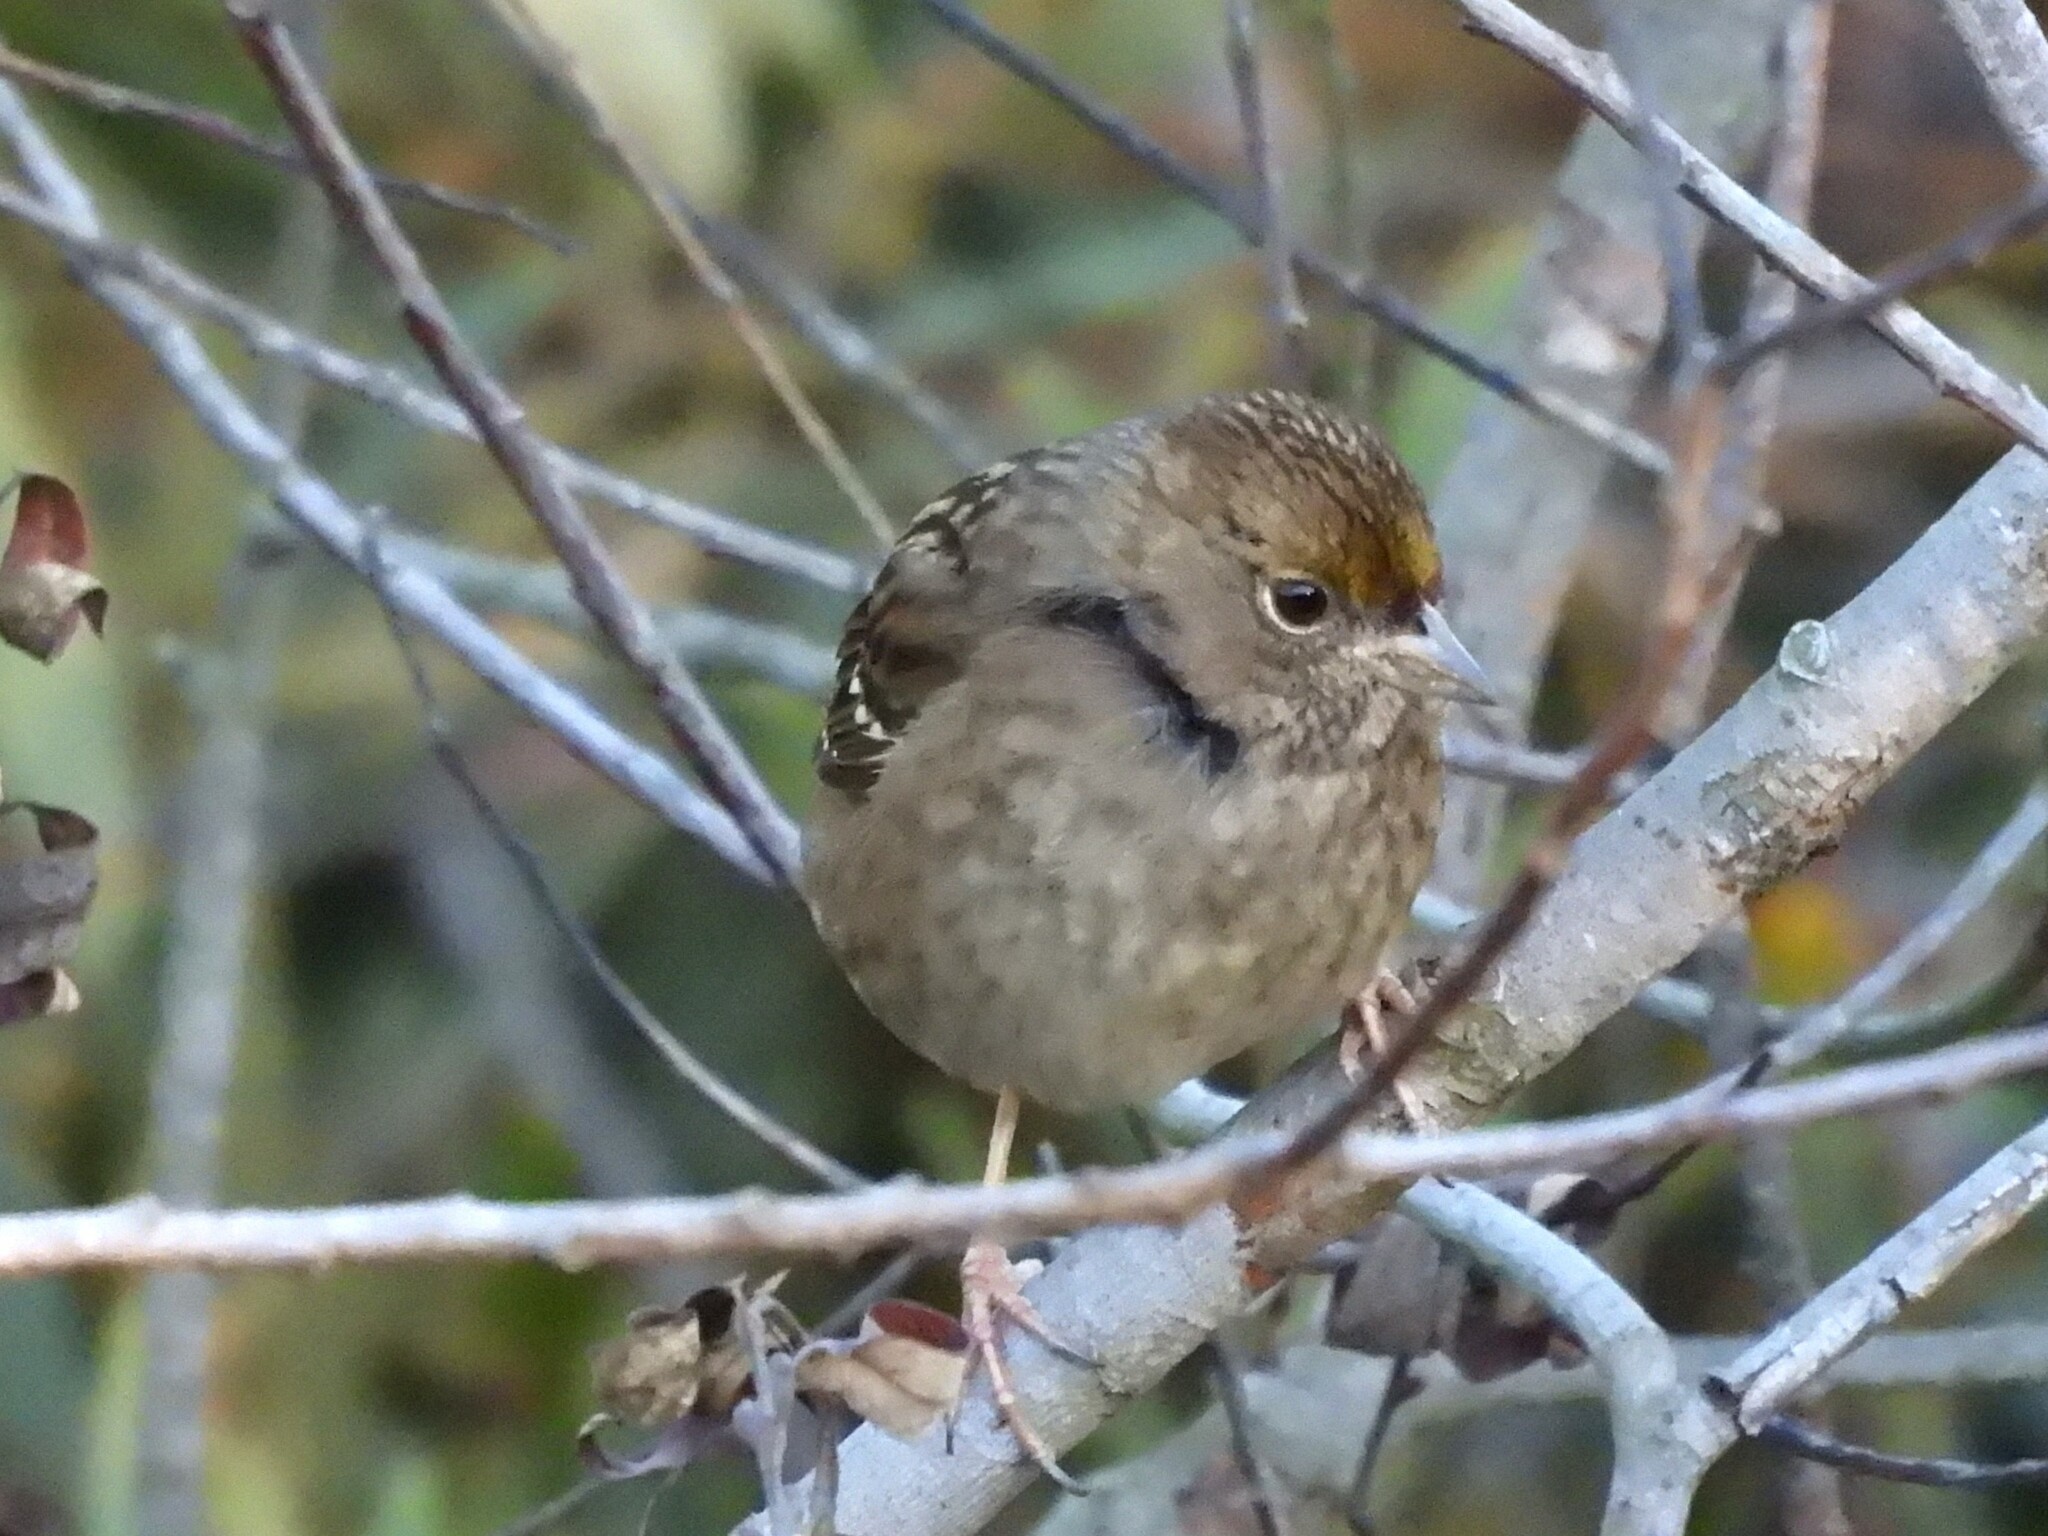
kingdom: Animalia
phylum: Chordata
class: Aves
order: Passeriformes
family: Passerellidae
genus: Zonotrichia
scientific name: Zonotrichia atricapilla
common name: Golden-crowned sparrow
